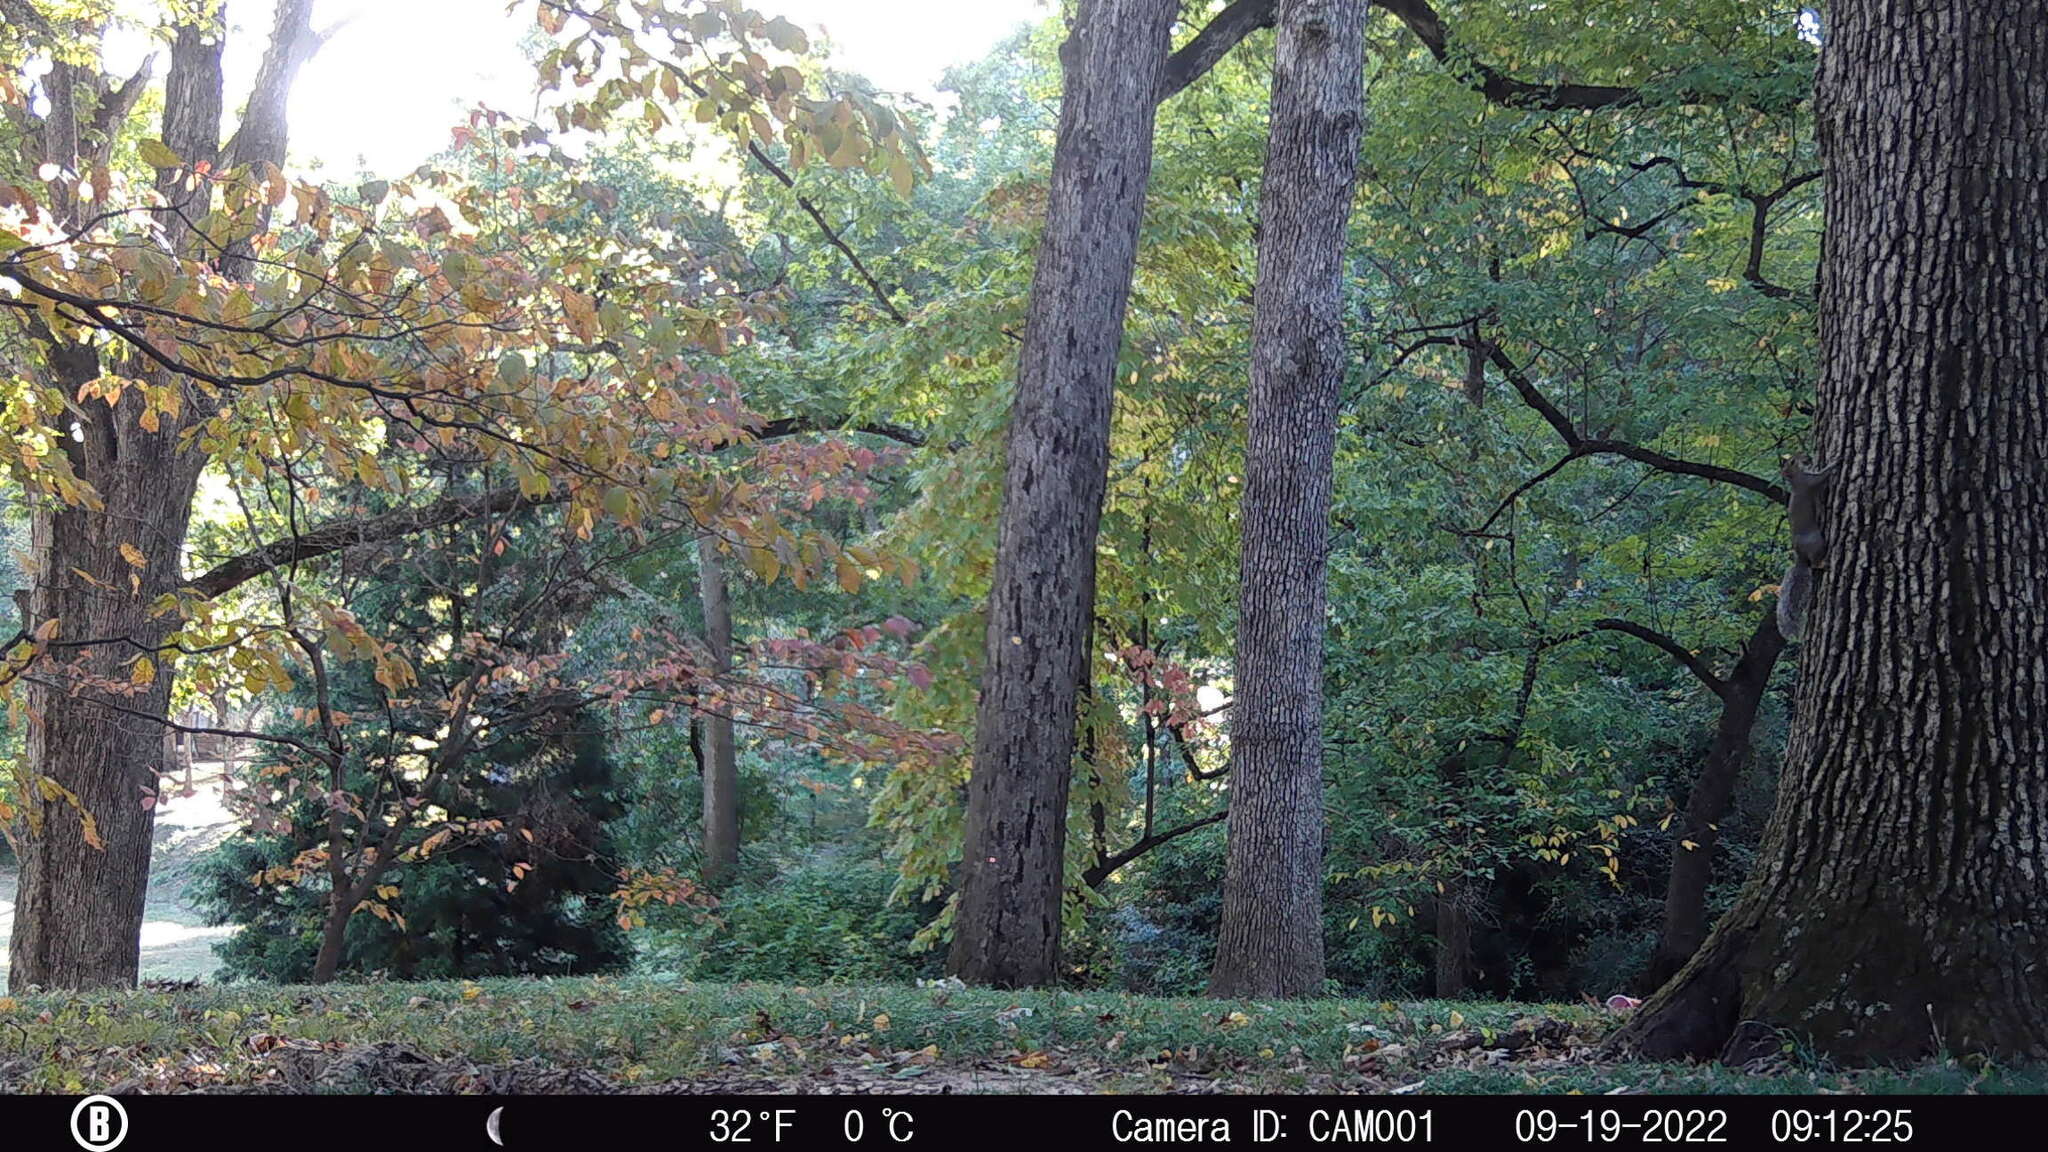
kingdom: Animalia
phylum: Chordata
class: Mammalia
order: Rodentia
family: Sciuridae
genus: Sciurus
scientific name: Sciurus carolinensis
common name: Eastern gray squirrel
